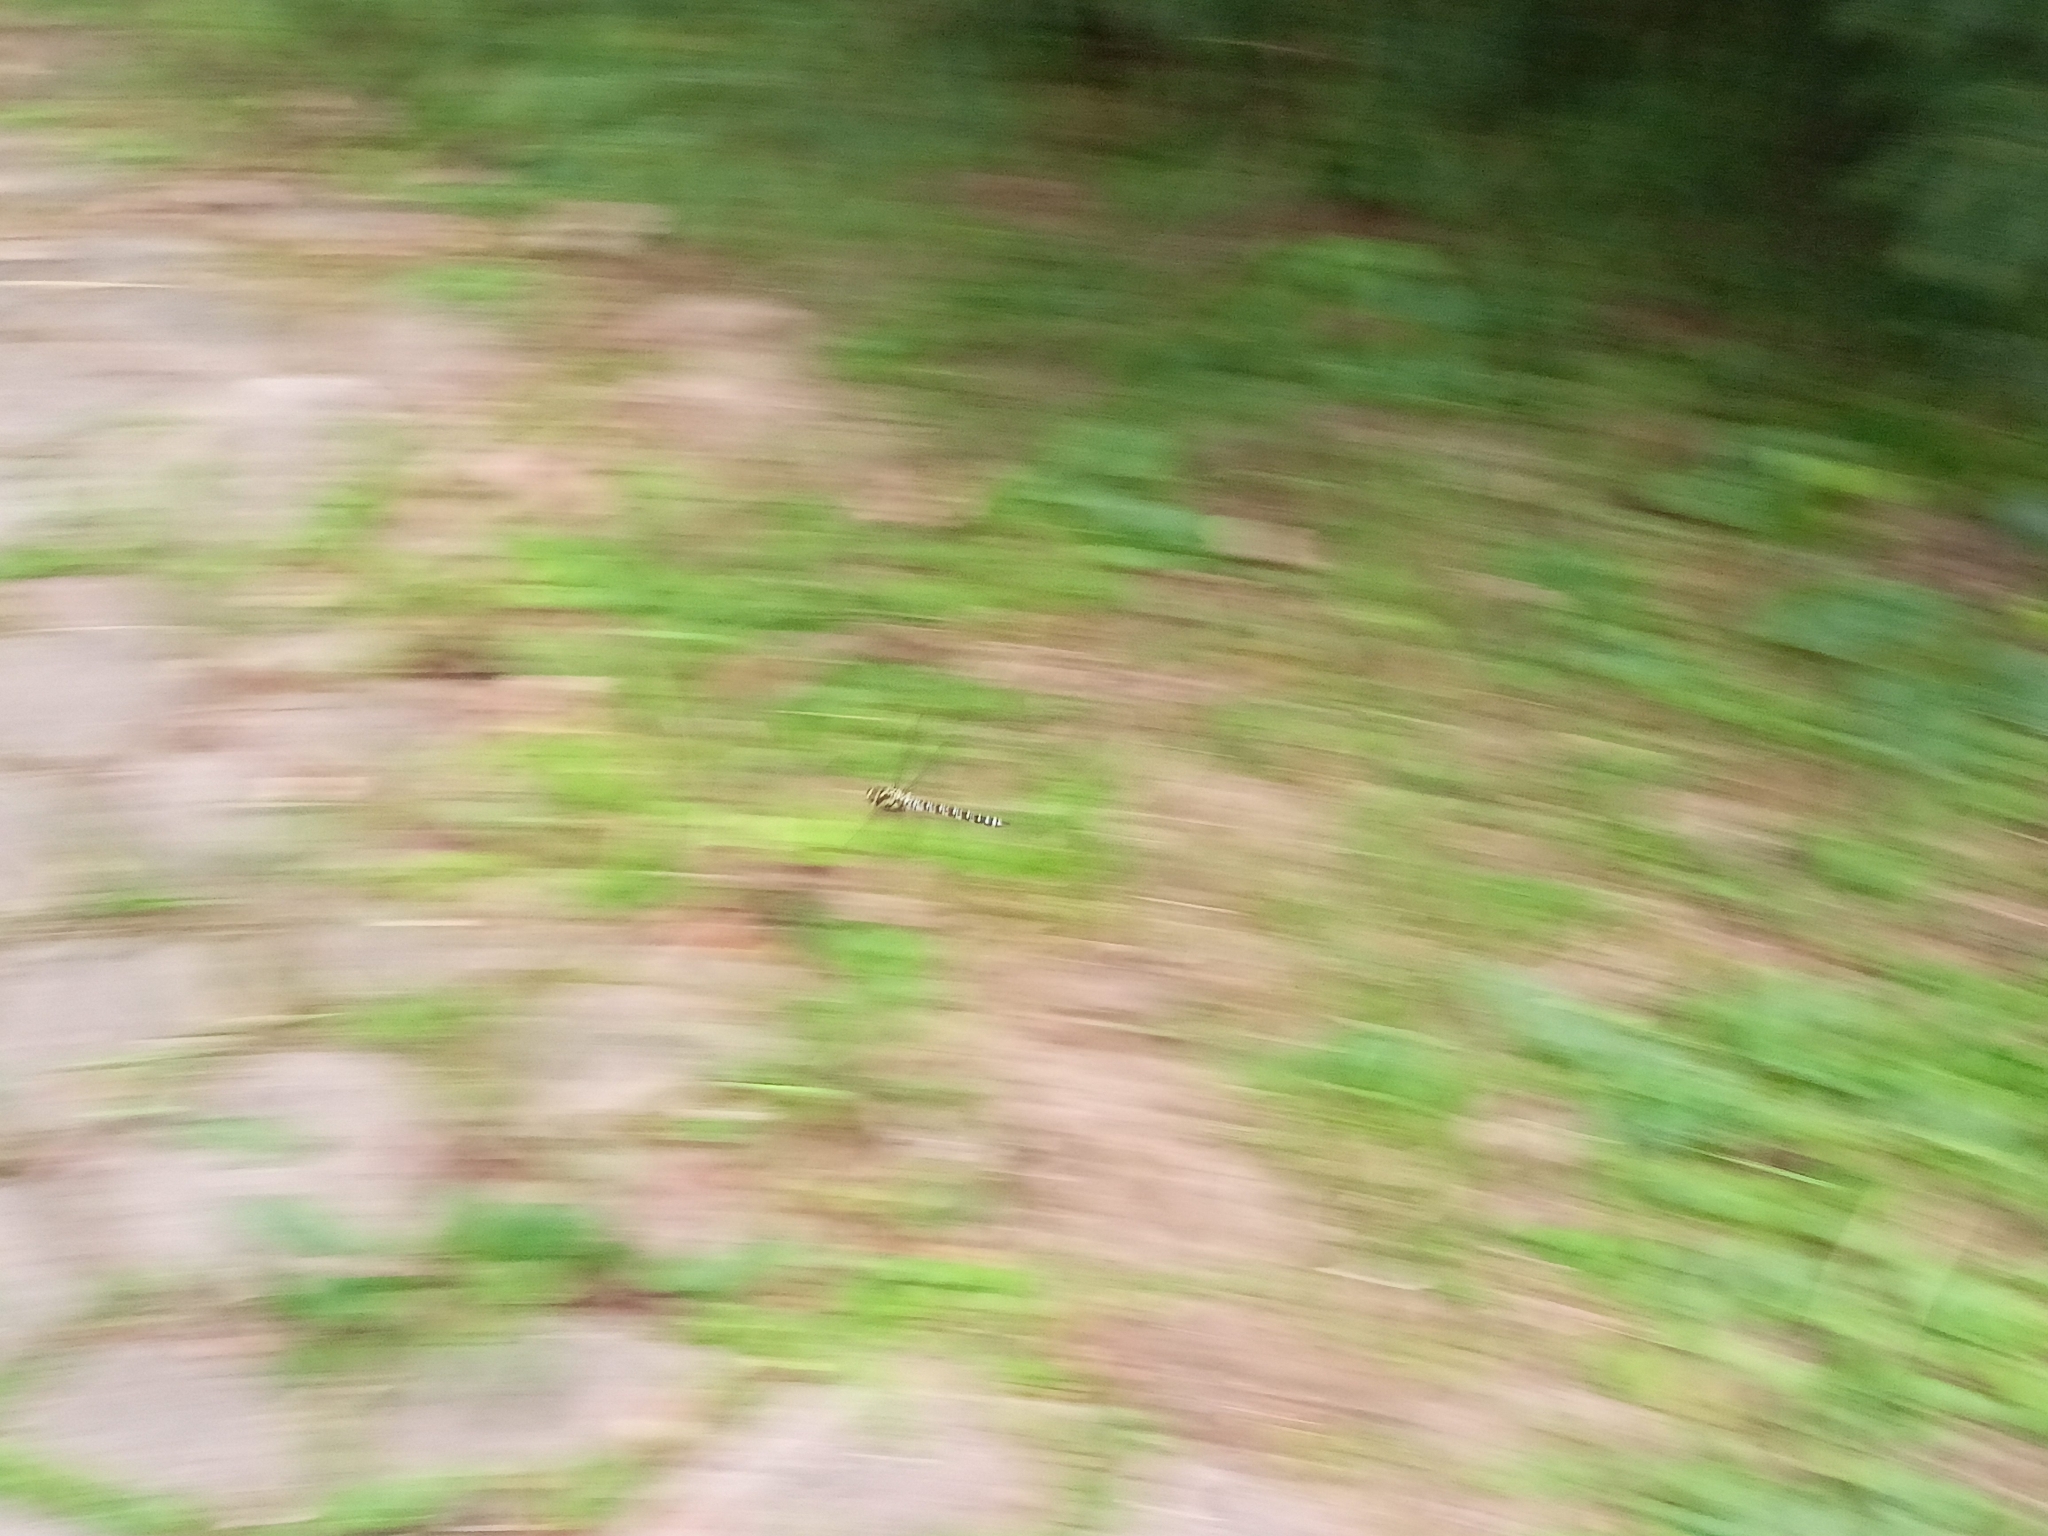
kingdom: Animalia
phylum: Arthropoda
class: Insecta
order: Odonata
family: Aeshnidae
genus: Aeshna
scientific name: Aeshna cyanea
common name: Southern hawker
